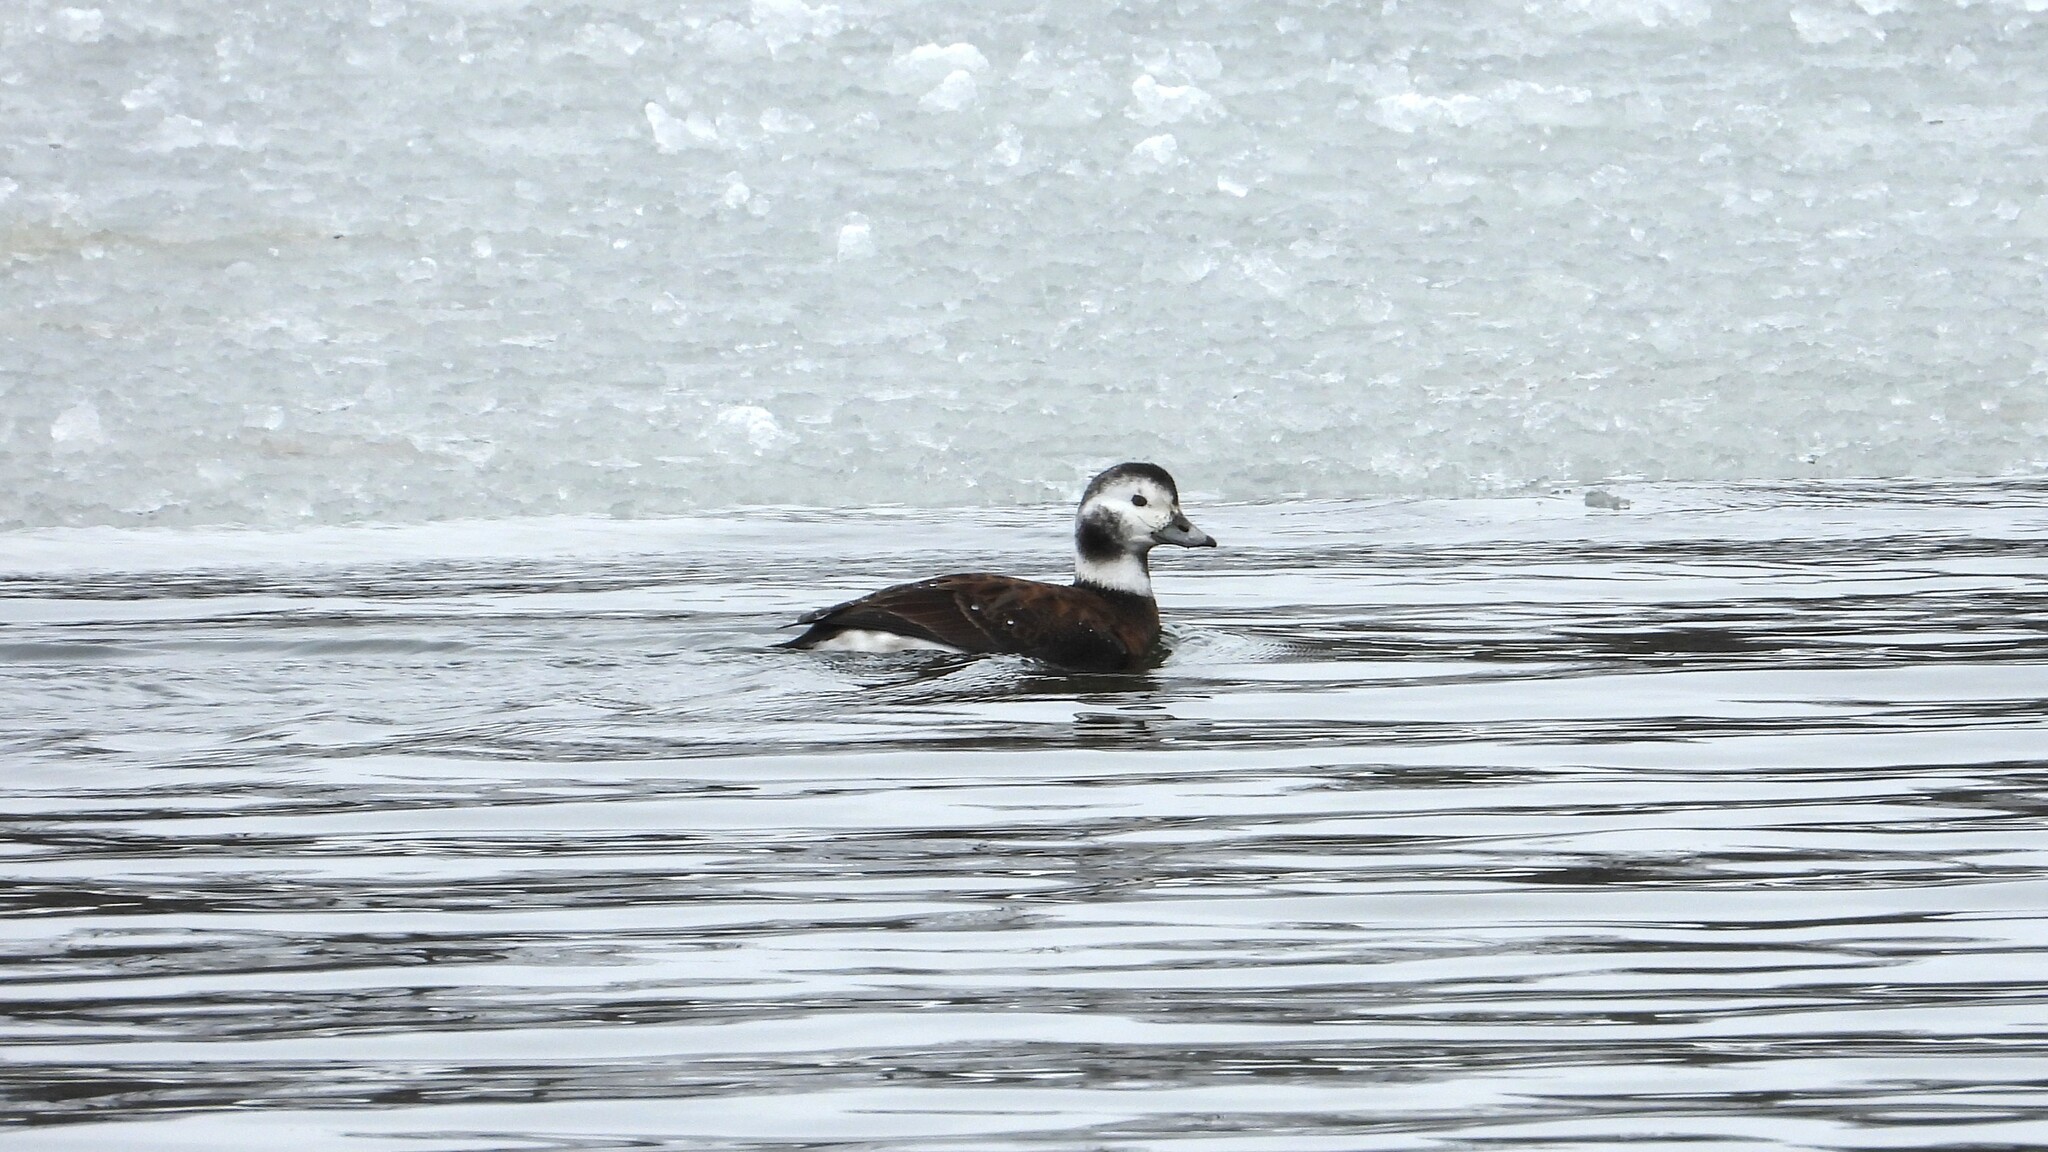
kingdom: Animalia
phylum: Chordata
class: Aves
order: Anseriformes
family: Anatidae
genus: Clangula
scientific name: Clangula hyemalis
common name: Long-tailed duck
